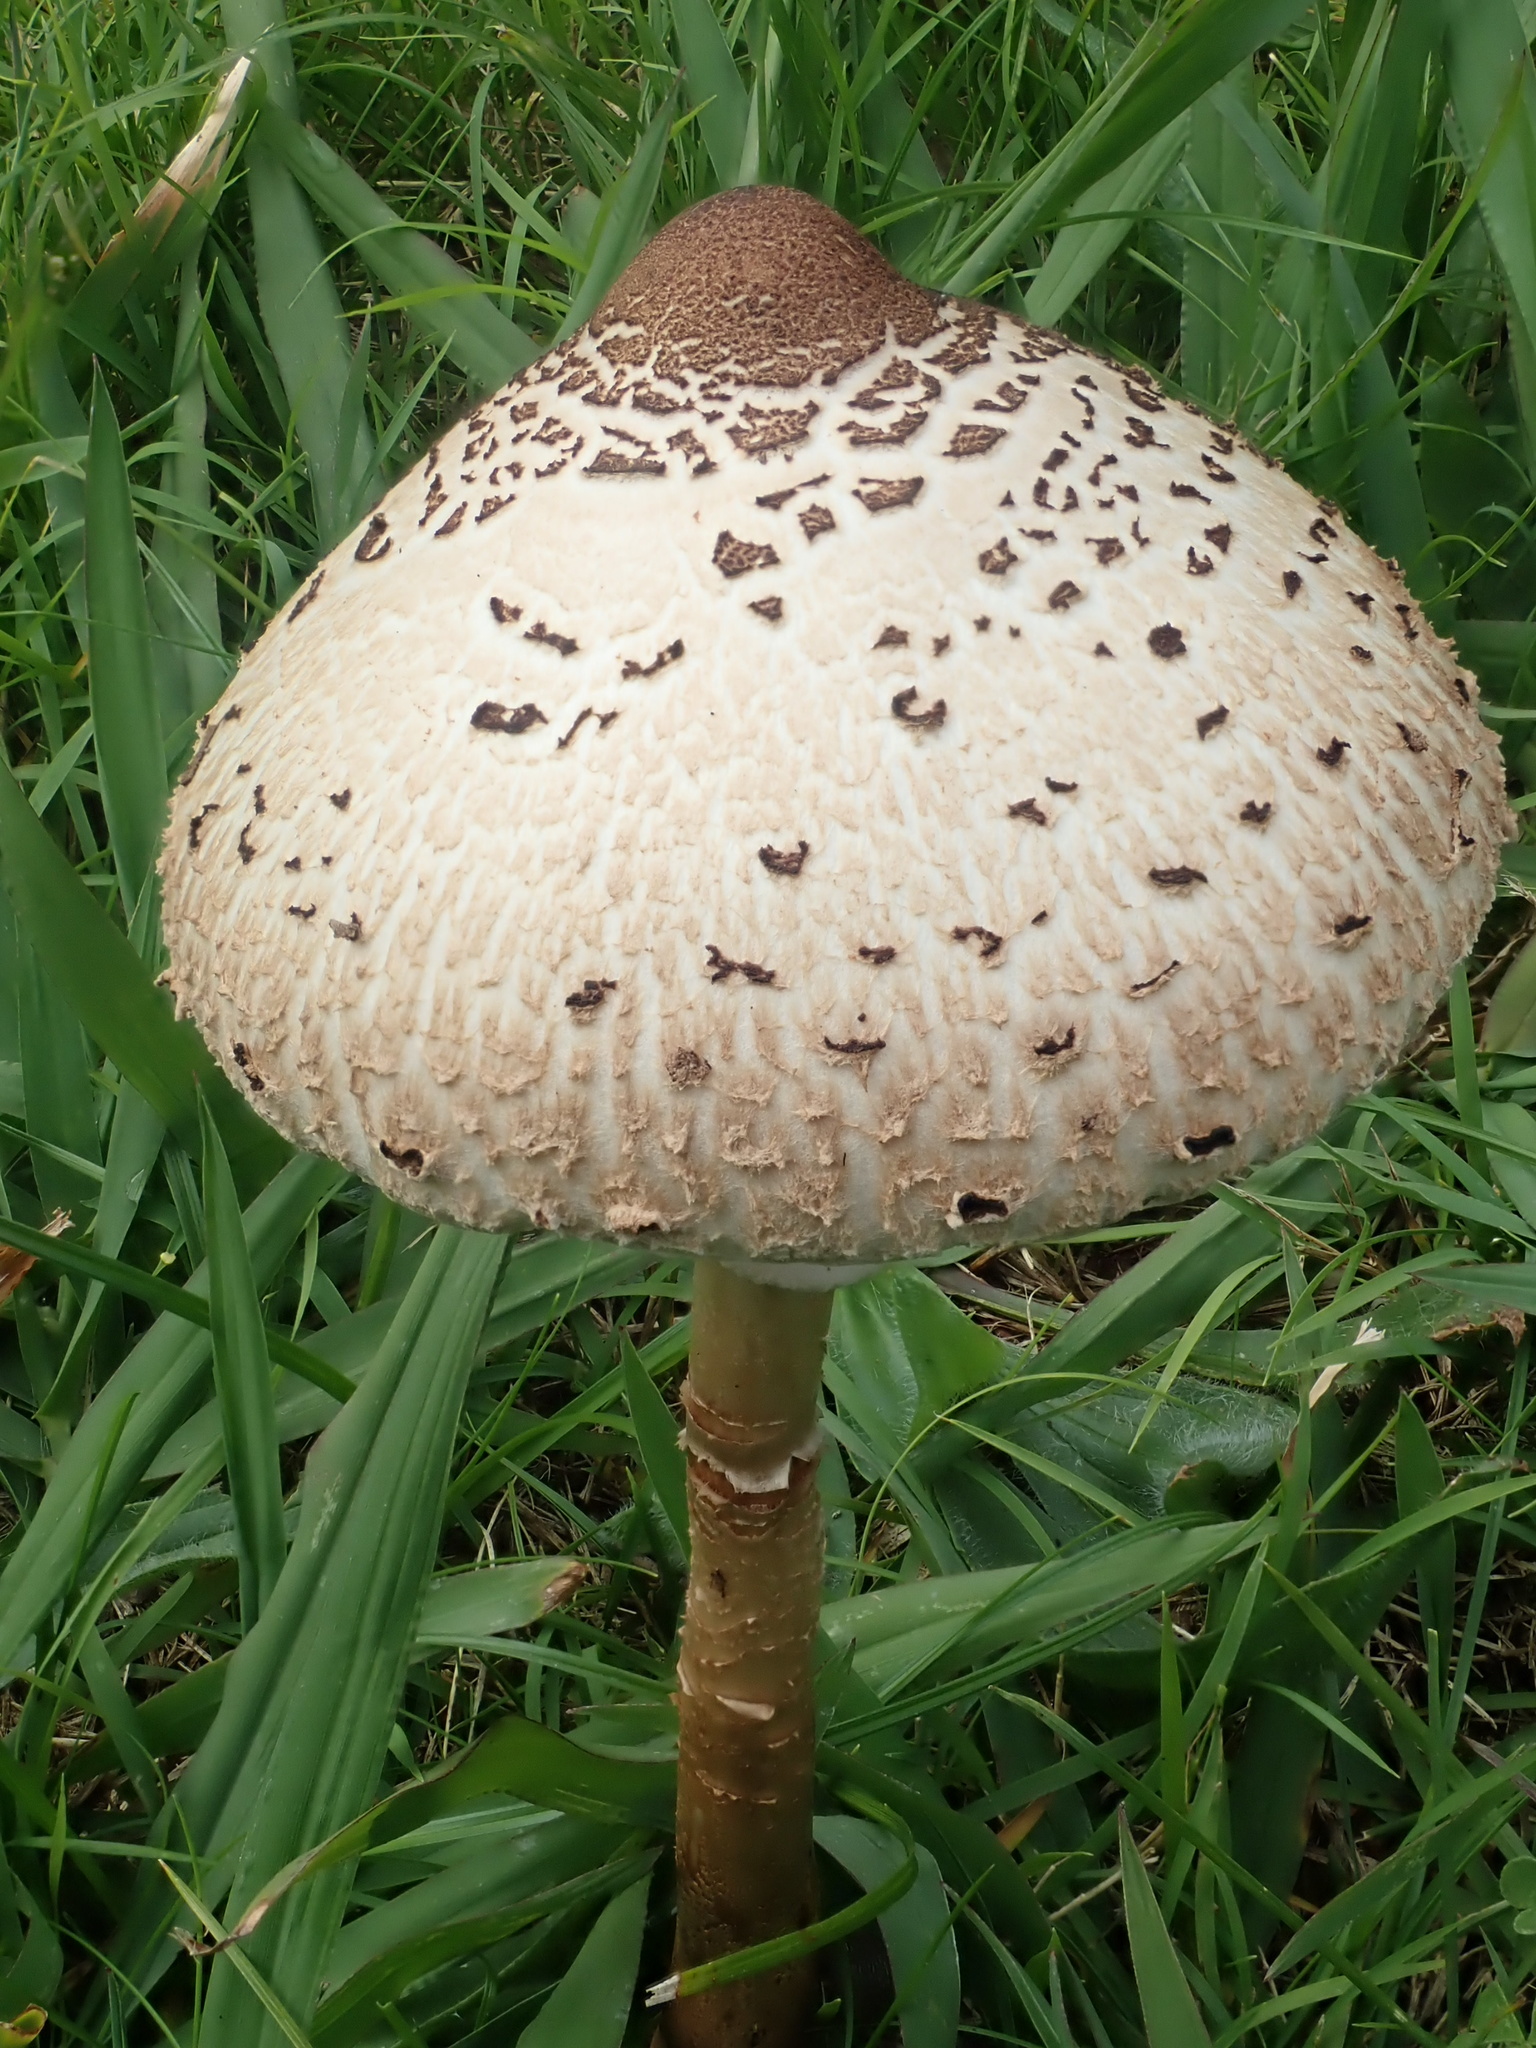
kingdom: Fungi
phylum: Basidiomycota
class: Agaricomycetes
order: Agaricales
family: Agaricaceae
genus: Macrolepiota
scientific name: Macrolepiota clelandii
